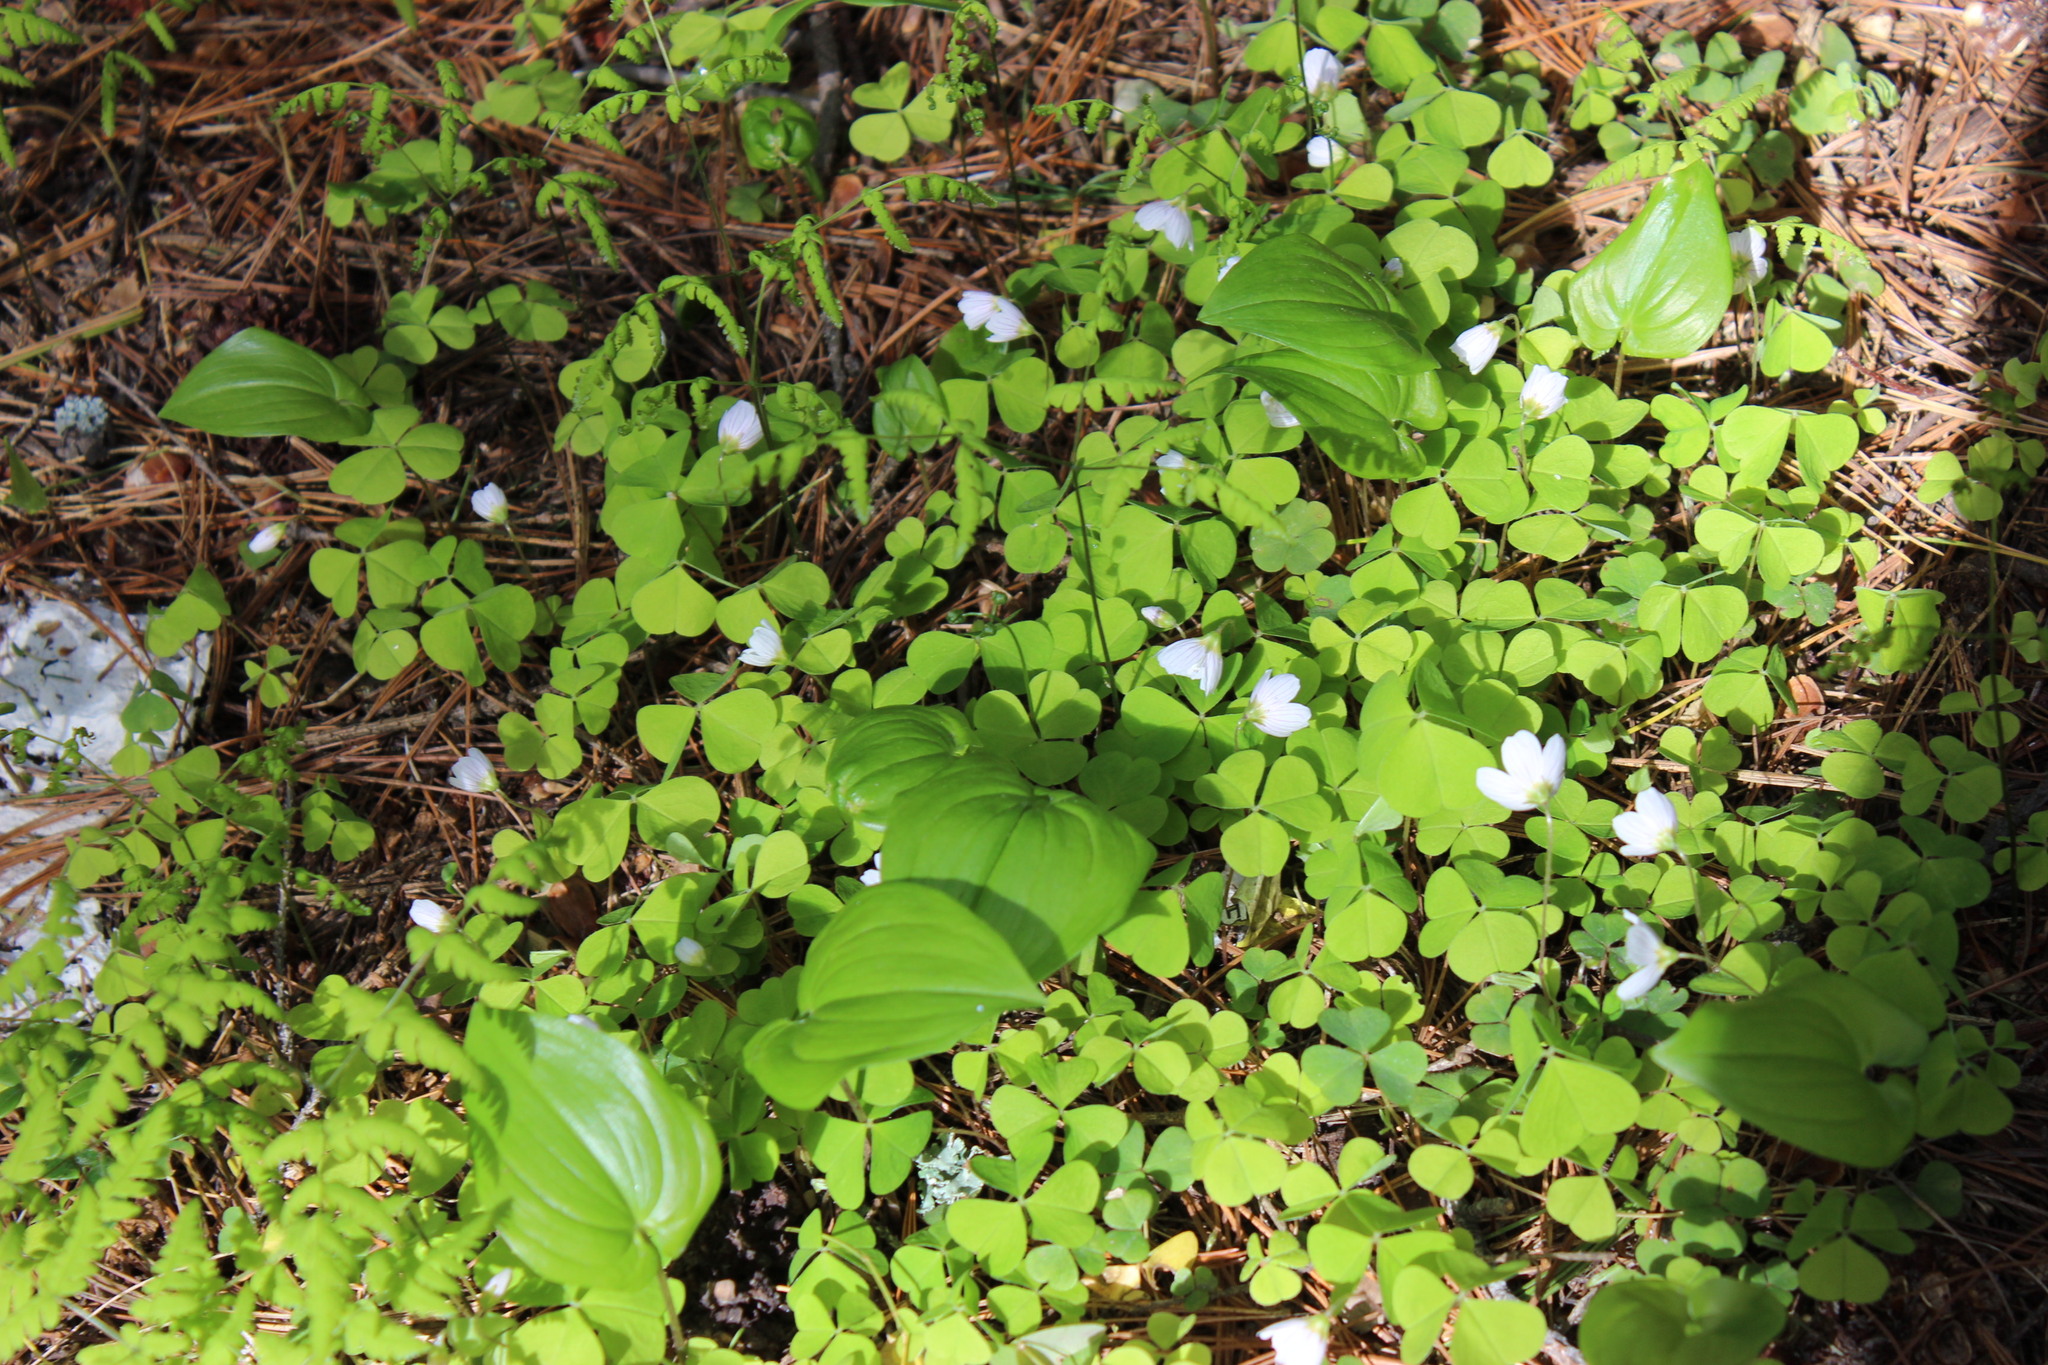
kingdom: Plantae
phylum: Tracheophyta
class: Magnoliopsida
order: Oxalidales
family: Oxalidaceae
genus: Oxalis
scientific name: Oxalis acetosella
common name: Wood-sorrel
